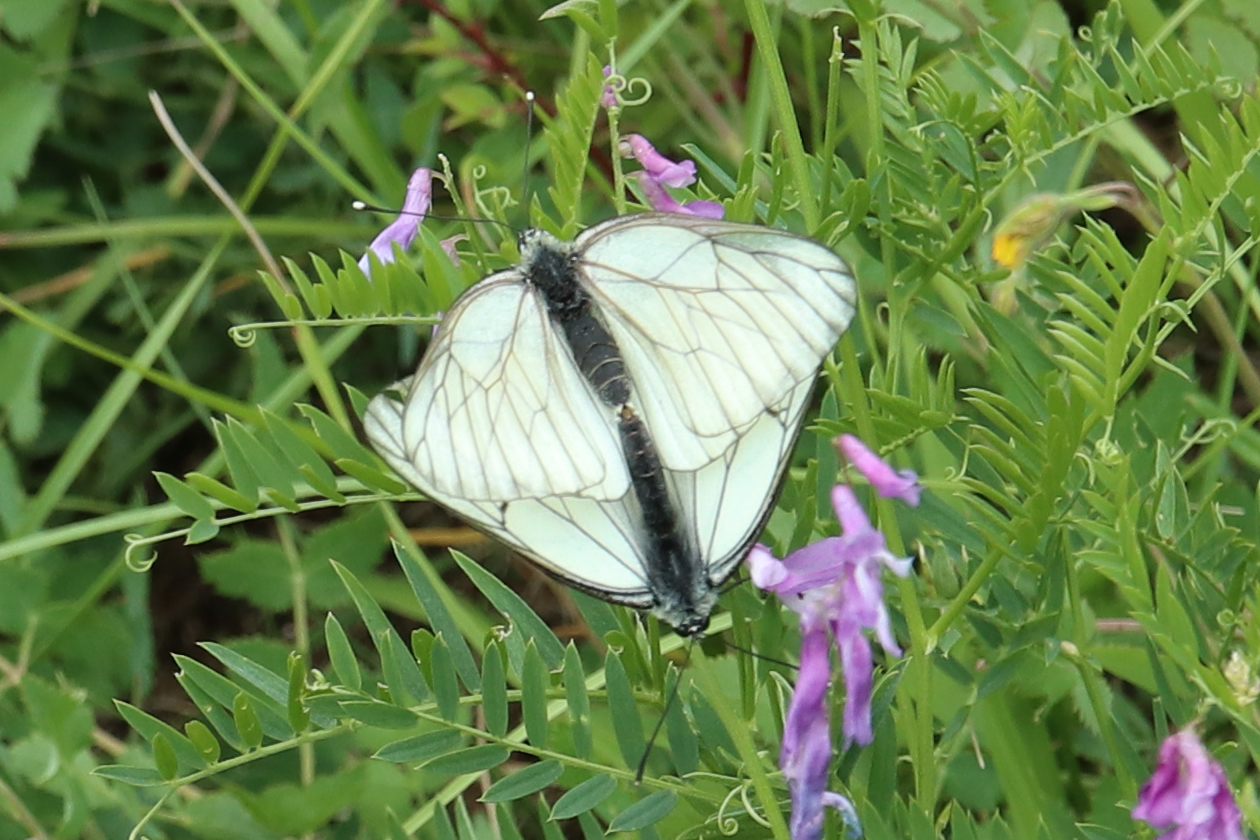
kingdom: Animalia
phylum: Arthropoda
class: Insecta
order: Lepidoptera
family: Pieridae
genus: Aporia
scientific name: Aporia crataegi
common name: Black-veined white
